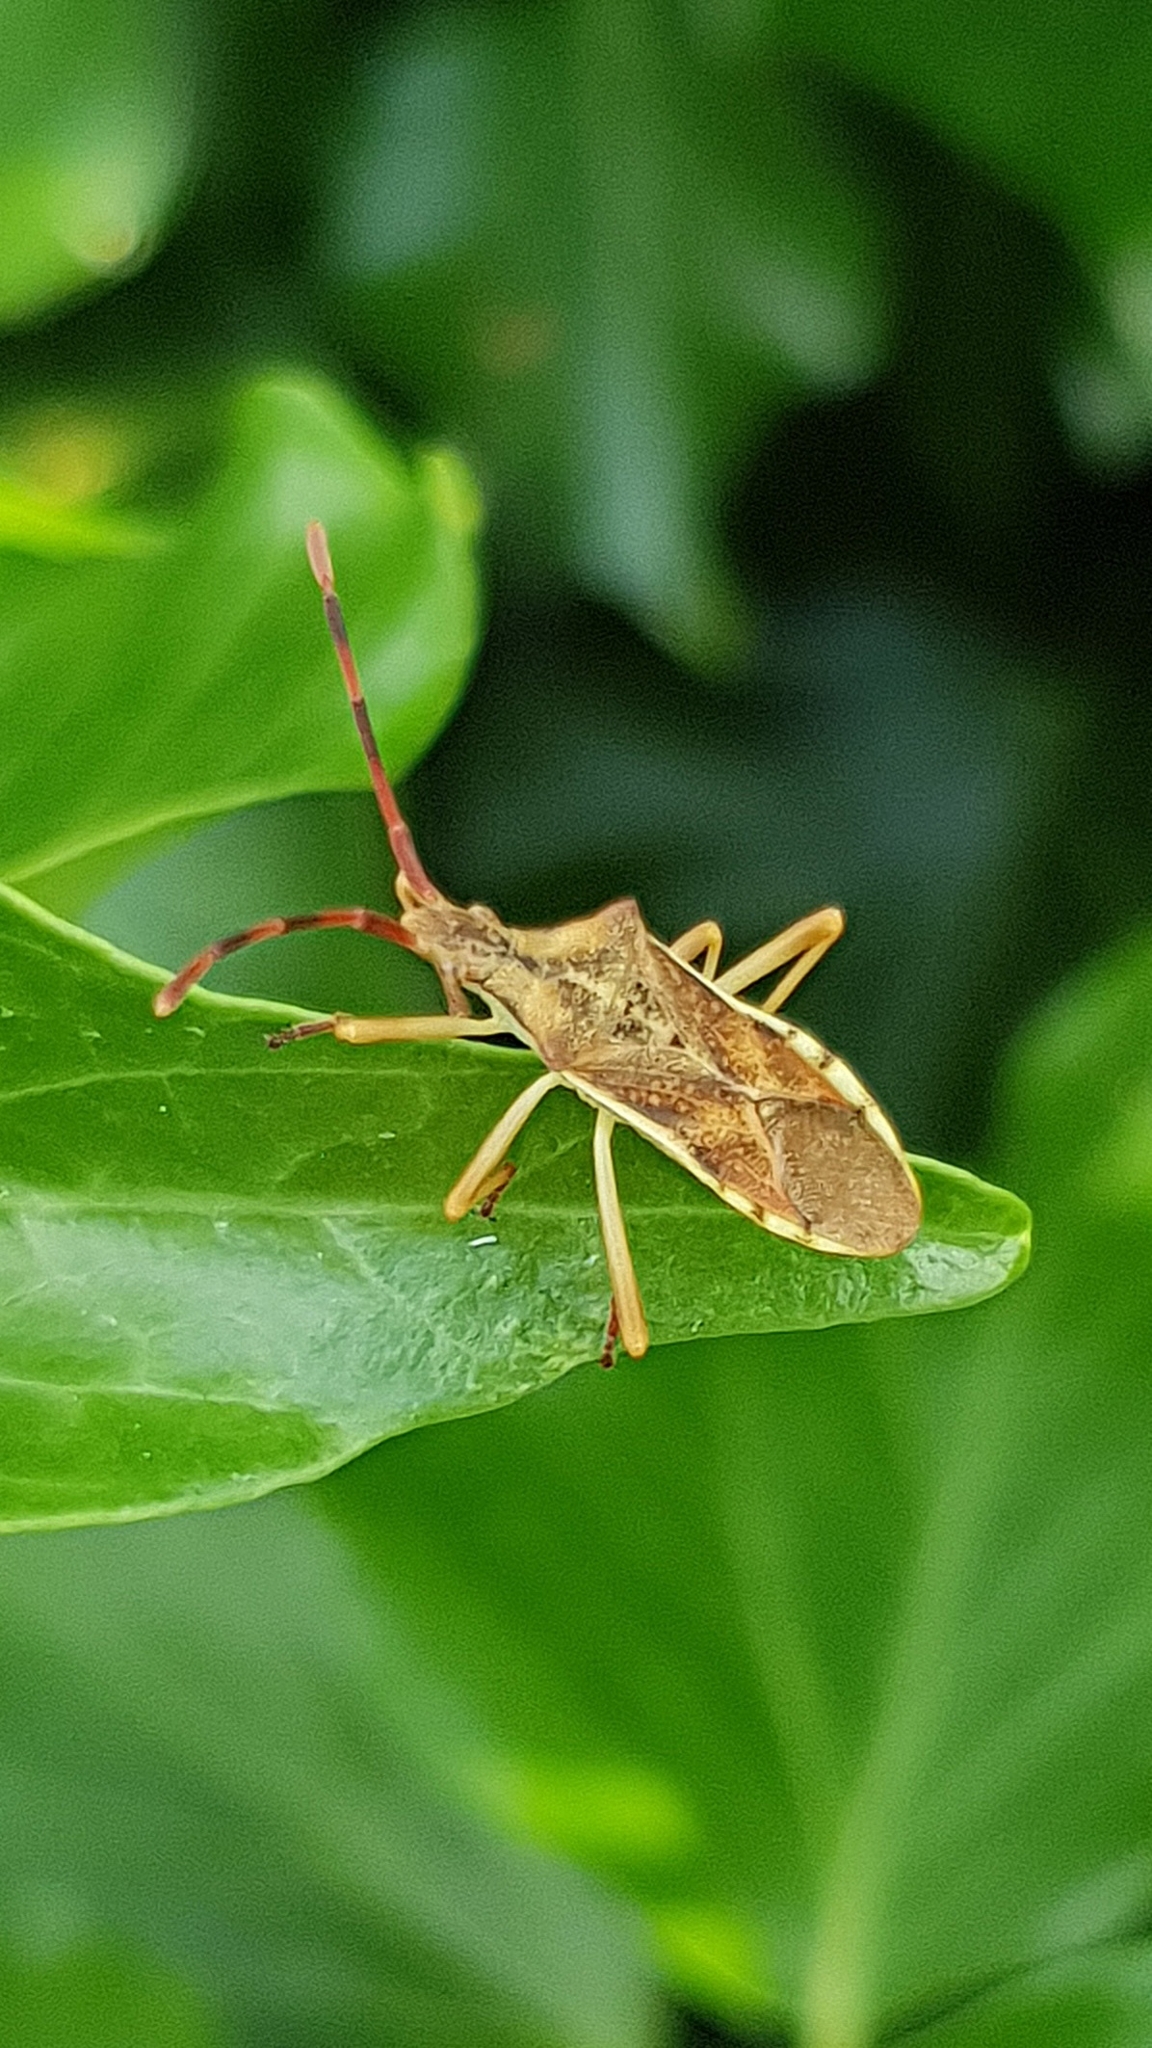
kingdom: Animalia
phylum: Arthropoda
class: Insecta
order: Hemiptera
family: Coreidae
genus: Gonocerus
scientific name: Gonocerus juniperi
